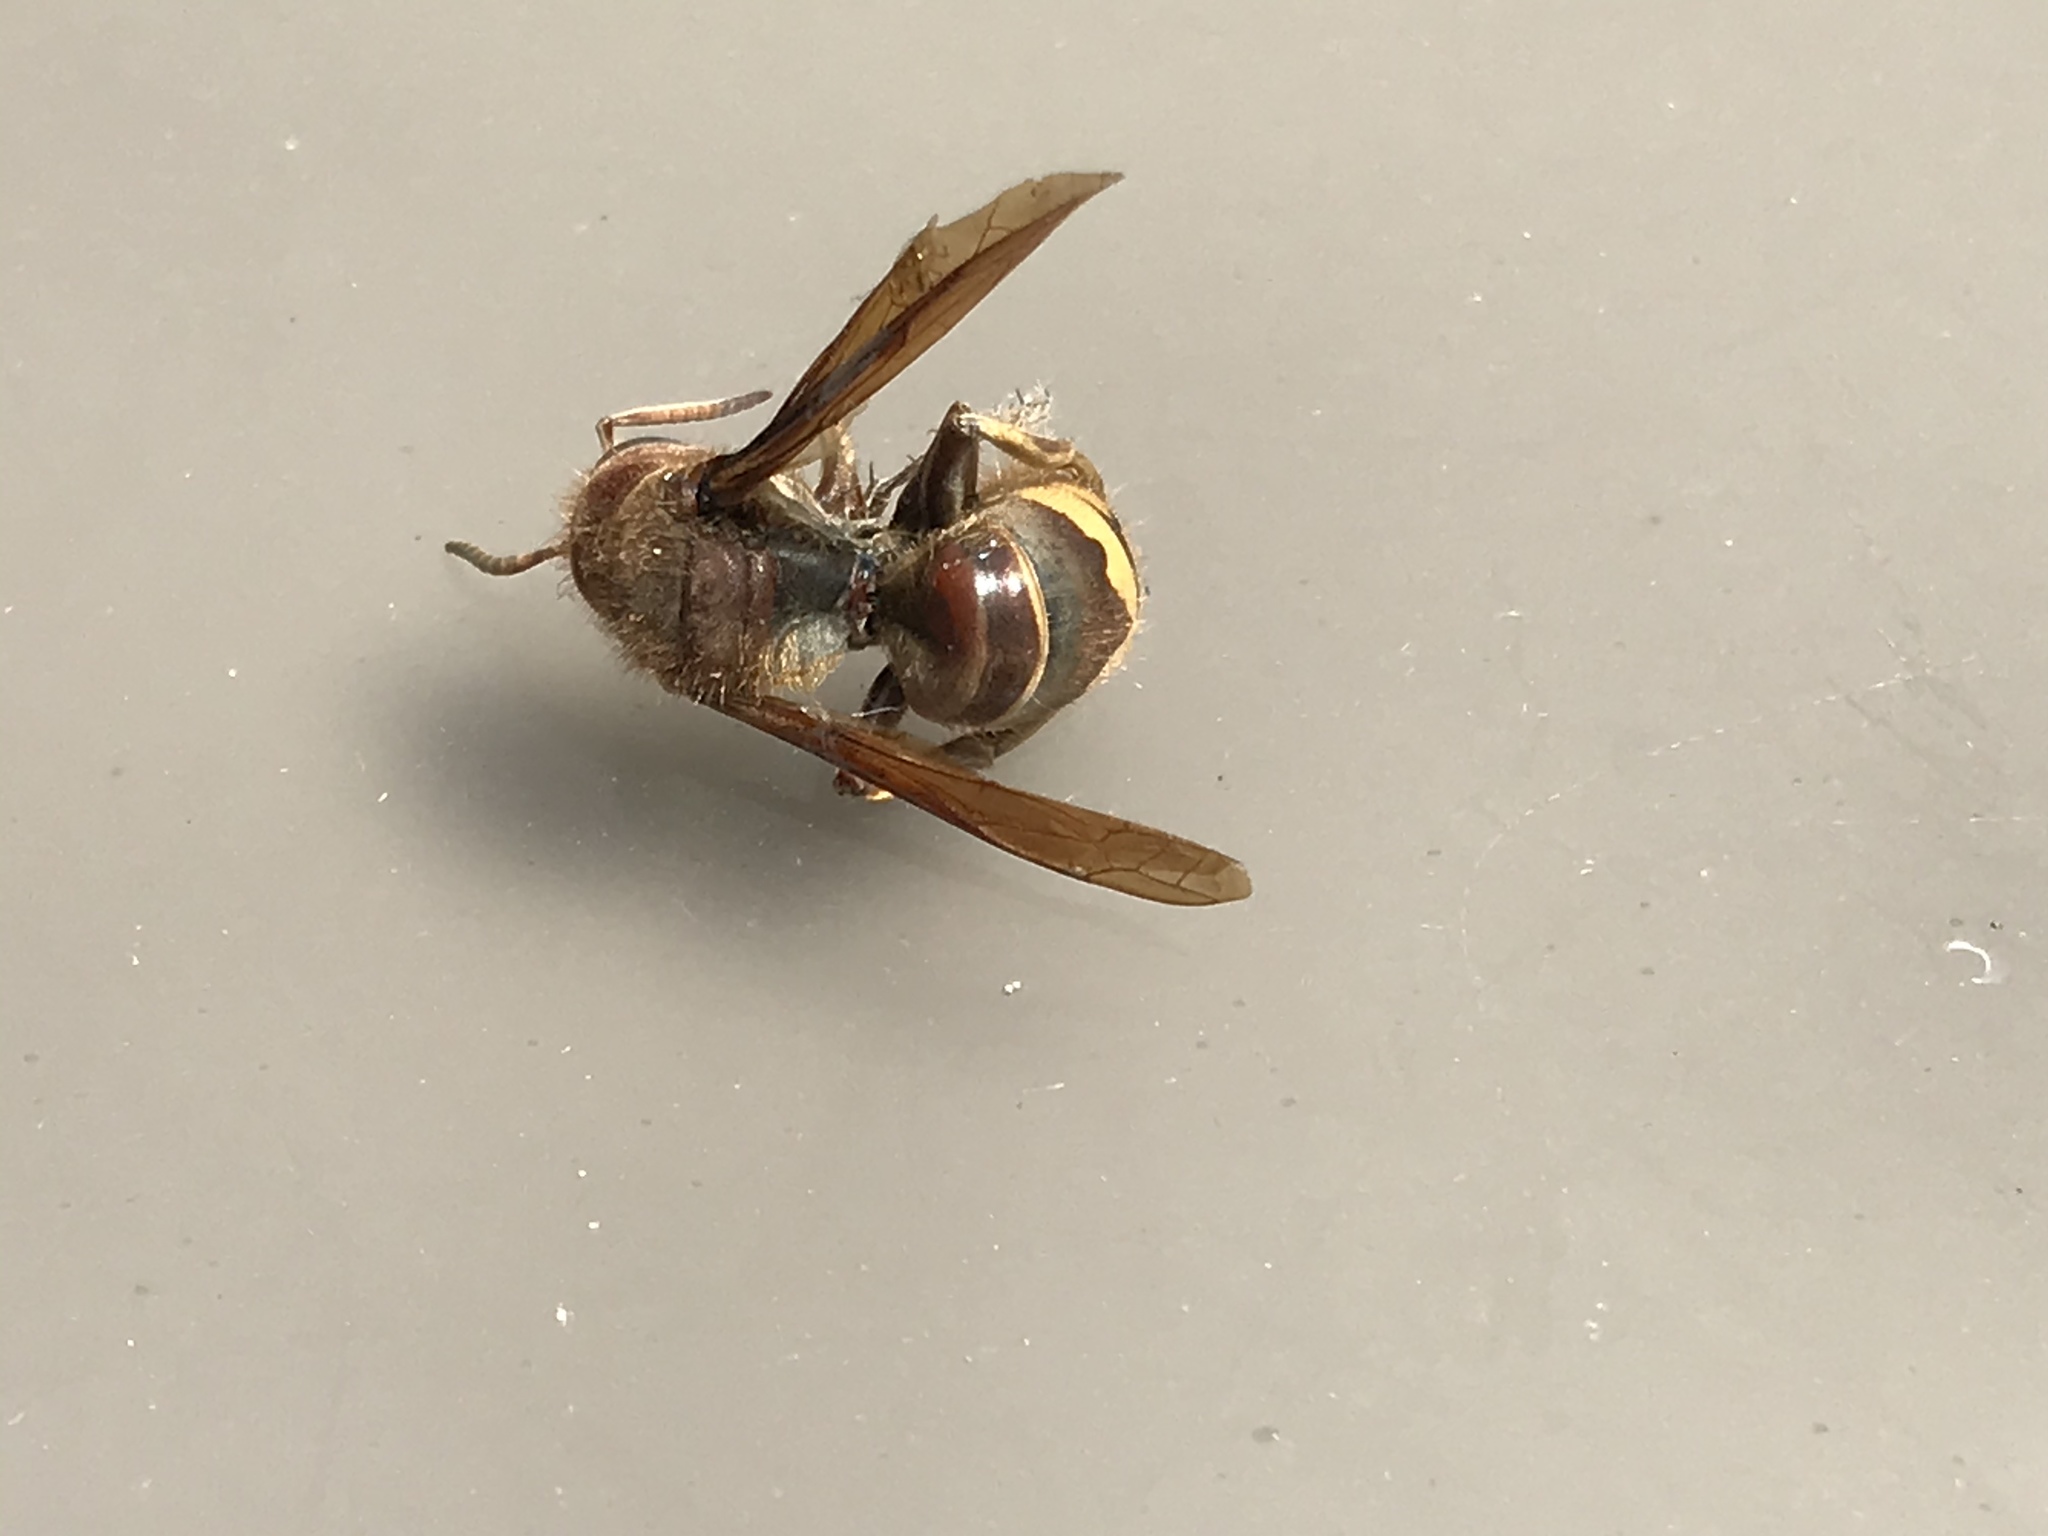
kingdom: Animalia
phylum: Arthropoda
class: Insecta
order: Hymenoptera
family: Vespidae
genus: Vespa
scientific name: Vespa crabro
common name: Hornet
